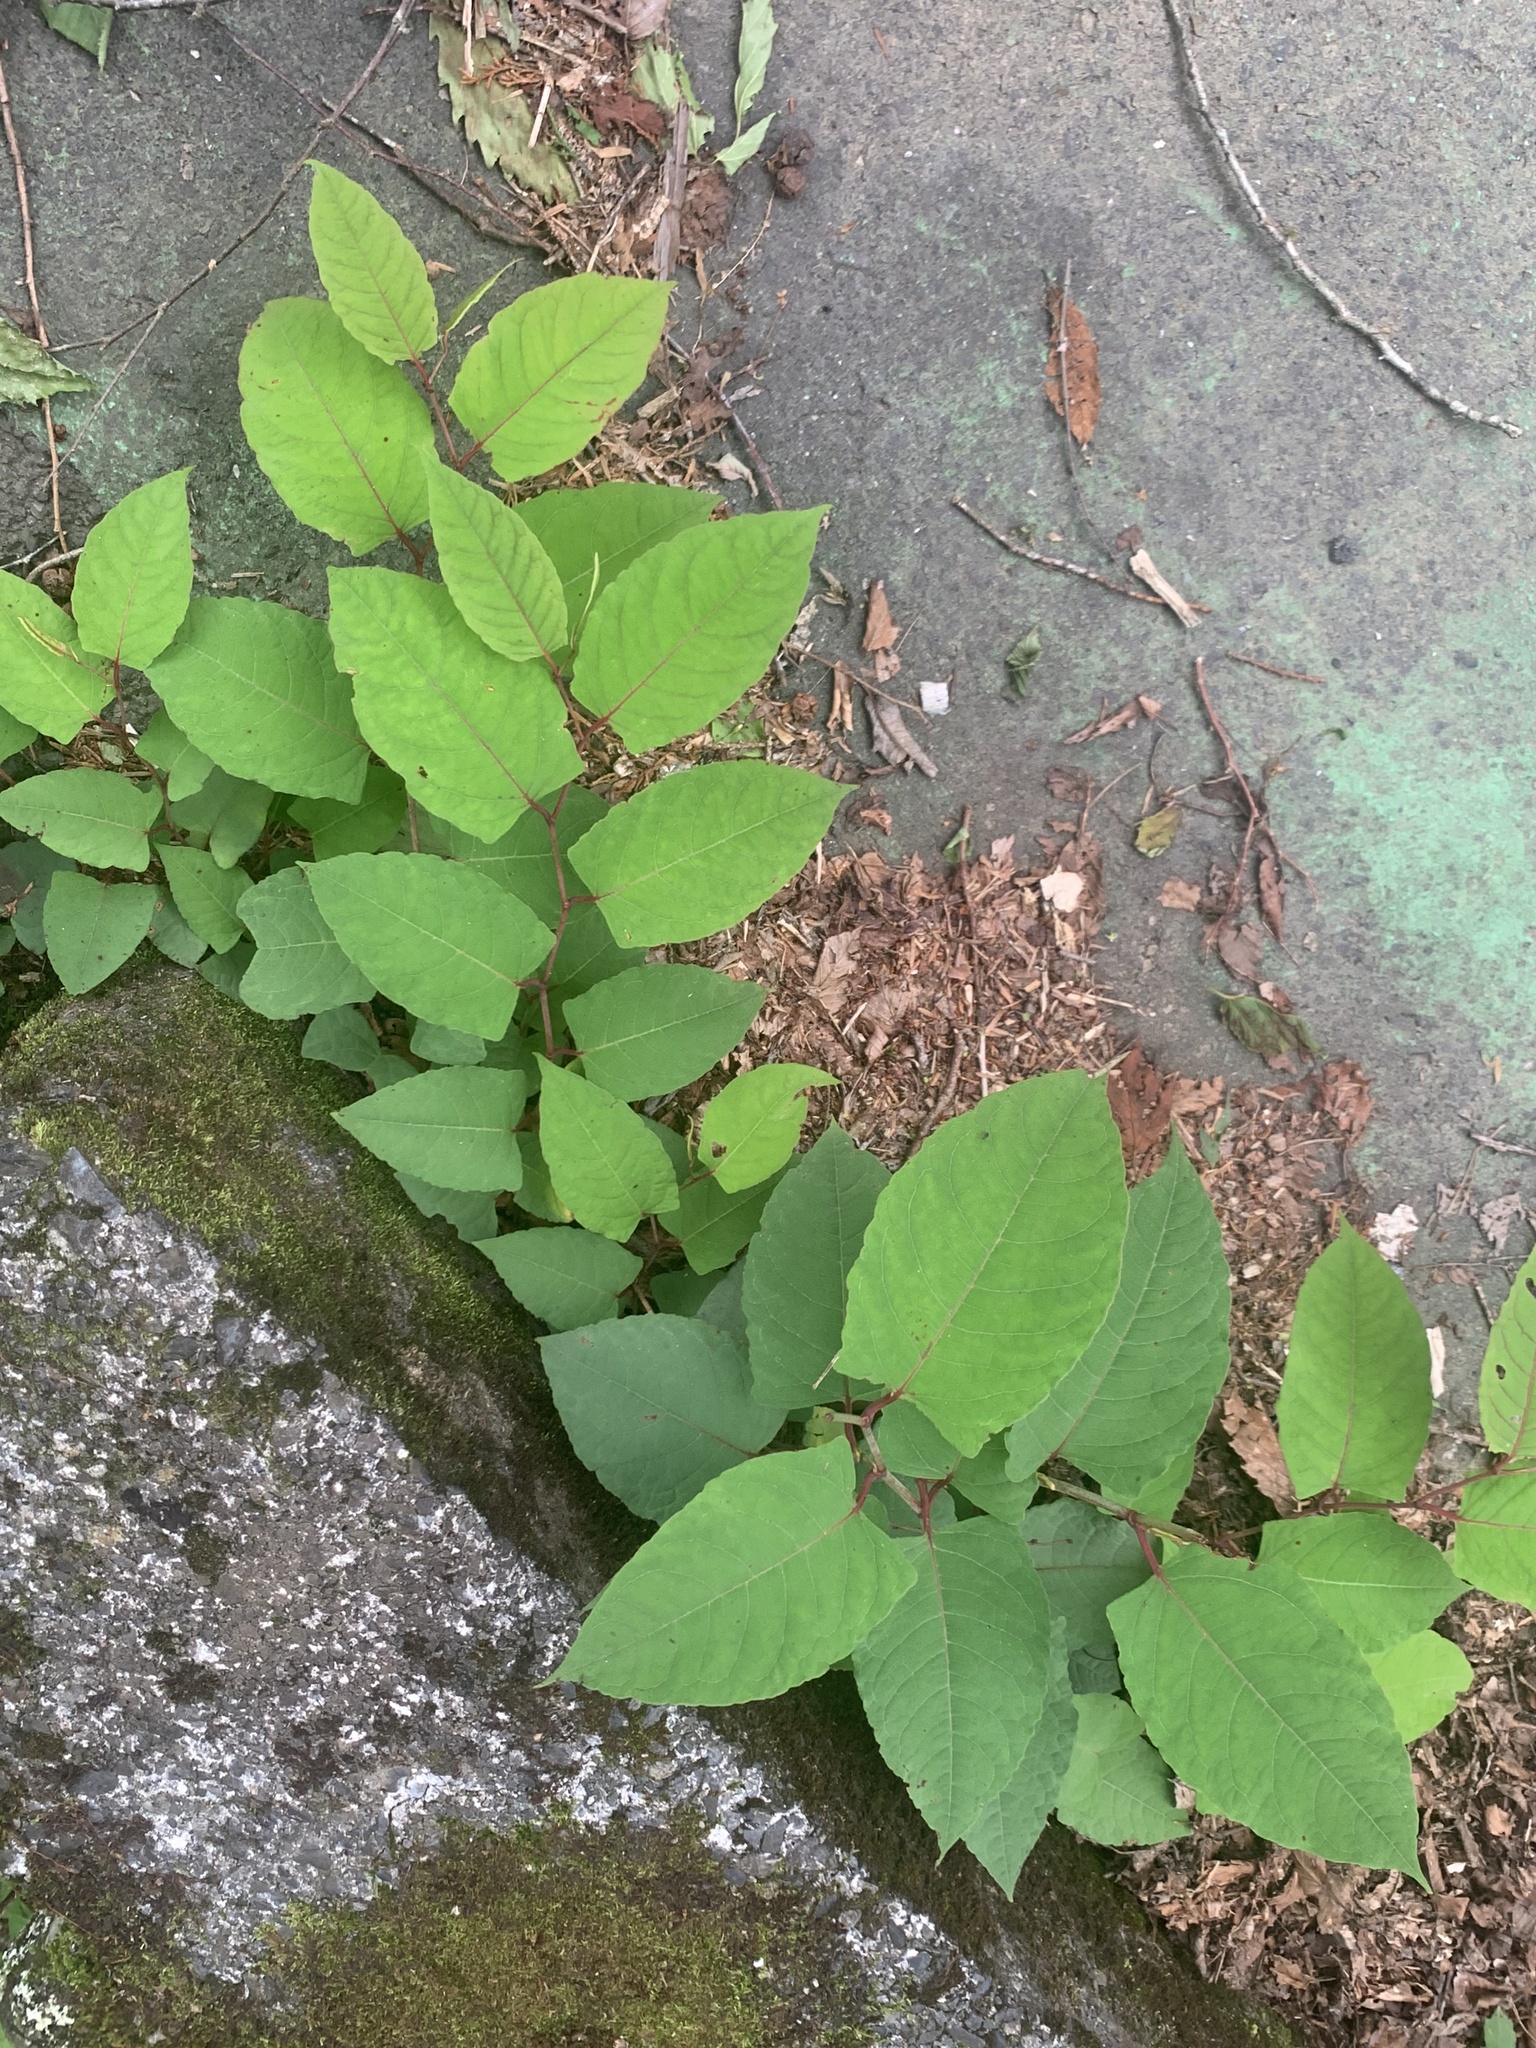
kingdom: Plantae
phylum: Tracheophyta
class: Magnoliopsida
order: Caryophyllales
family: Polygonaceae
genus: Reynoutria
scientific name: Reynoutria japonica
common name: Japanese knotweed
